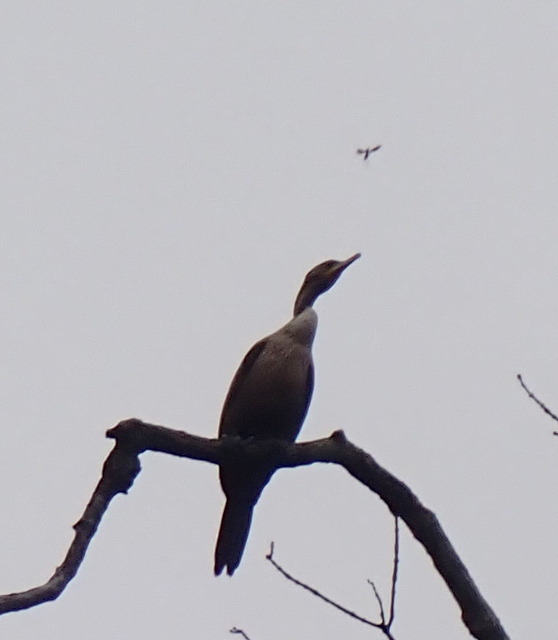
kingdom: Animalia
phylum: Chordata
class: Aves
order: Suliformes
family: Phalacrocoracidae
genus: Phalacrocorax
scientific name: Phalacrocorax auritus
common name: Double-crested cormorant
